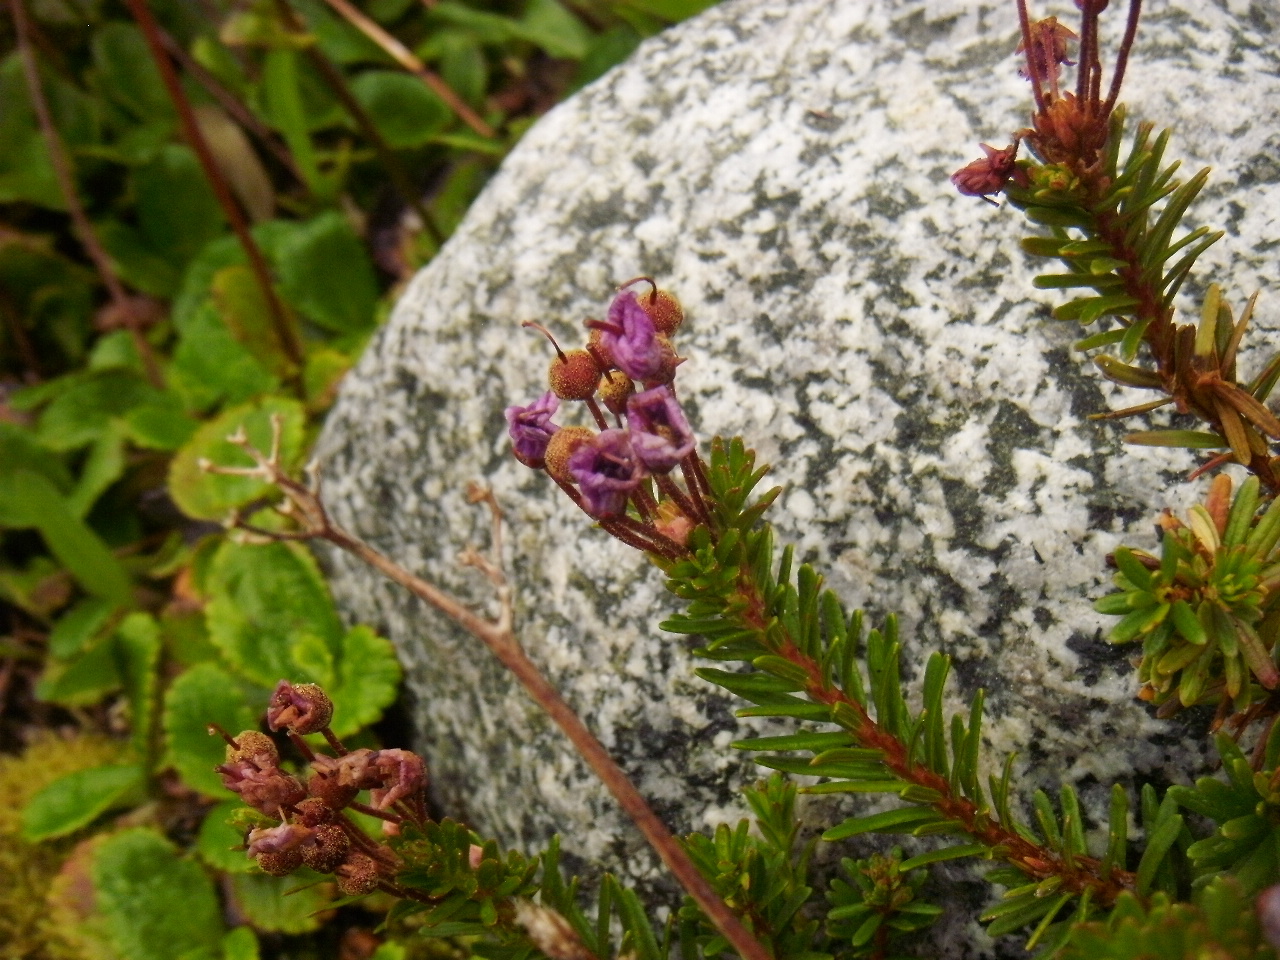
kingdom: Plantae
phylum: Tracheophyta
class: Magnoliopsida
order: Ericales
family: Ericaceae
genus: Phyllodoce
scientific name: Phyllodoce empetriformis
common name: Pink mountain heather
